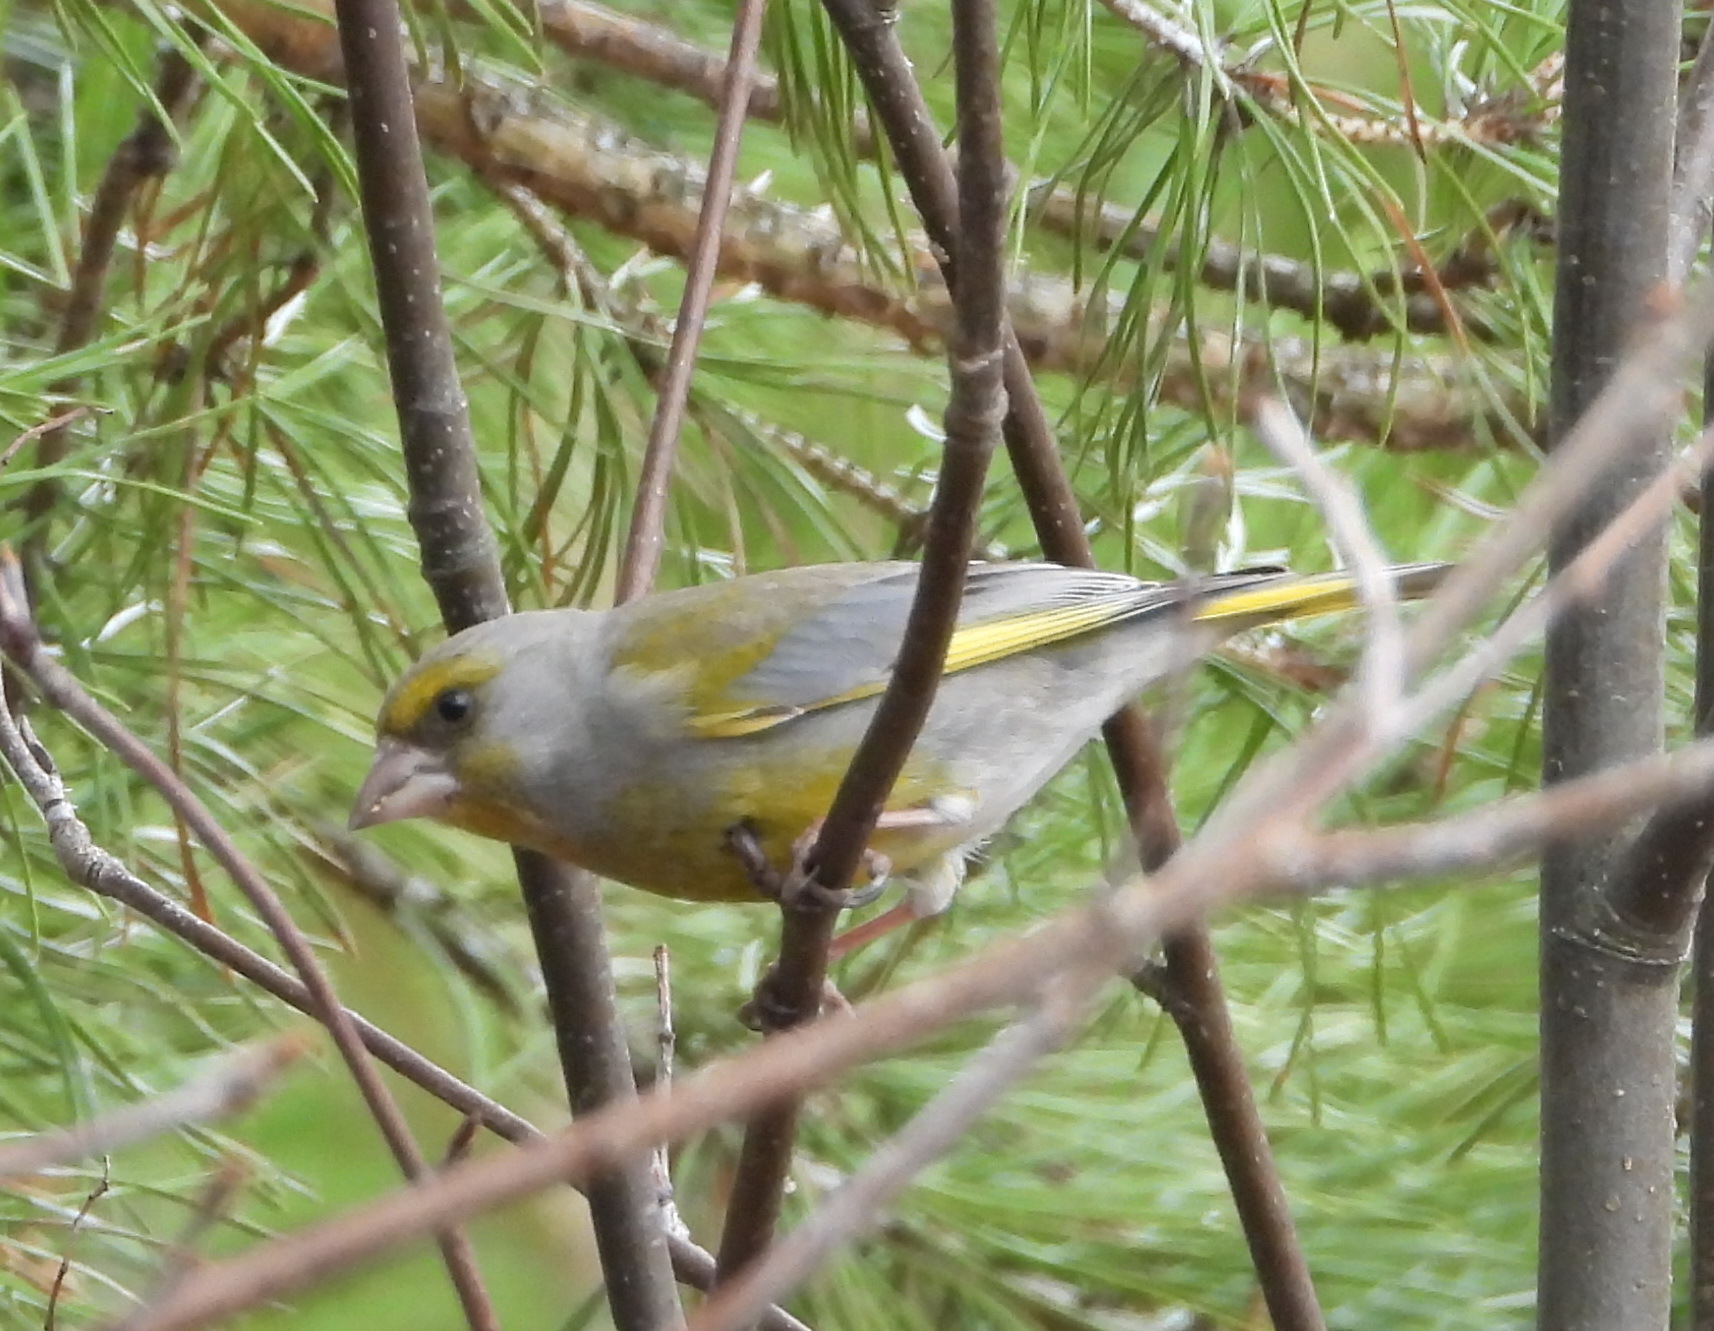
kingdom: Plantae
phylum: Tracheophyta
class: Liliopsida
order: Poales
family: Poaceae
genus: Chloris
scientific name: Chloris chloris
